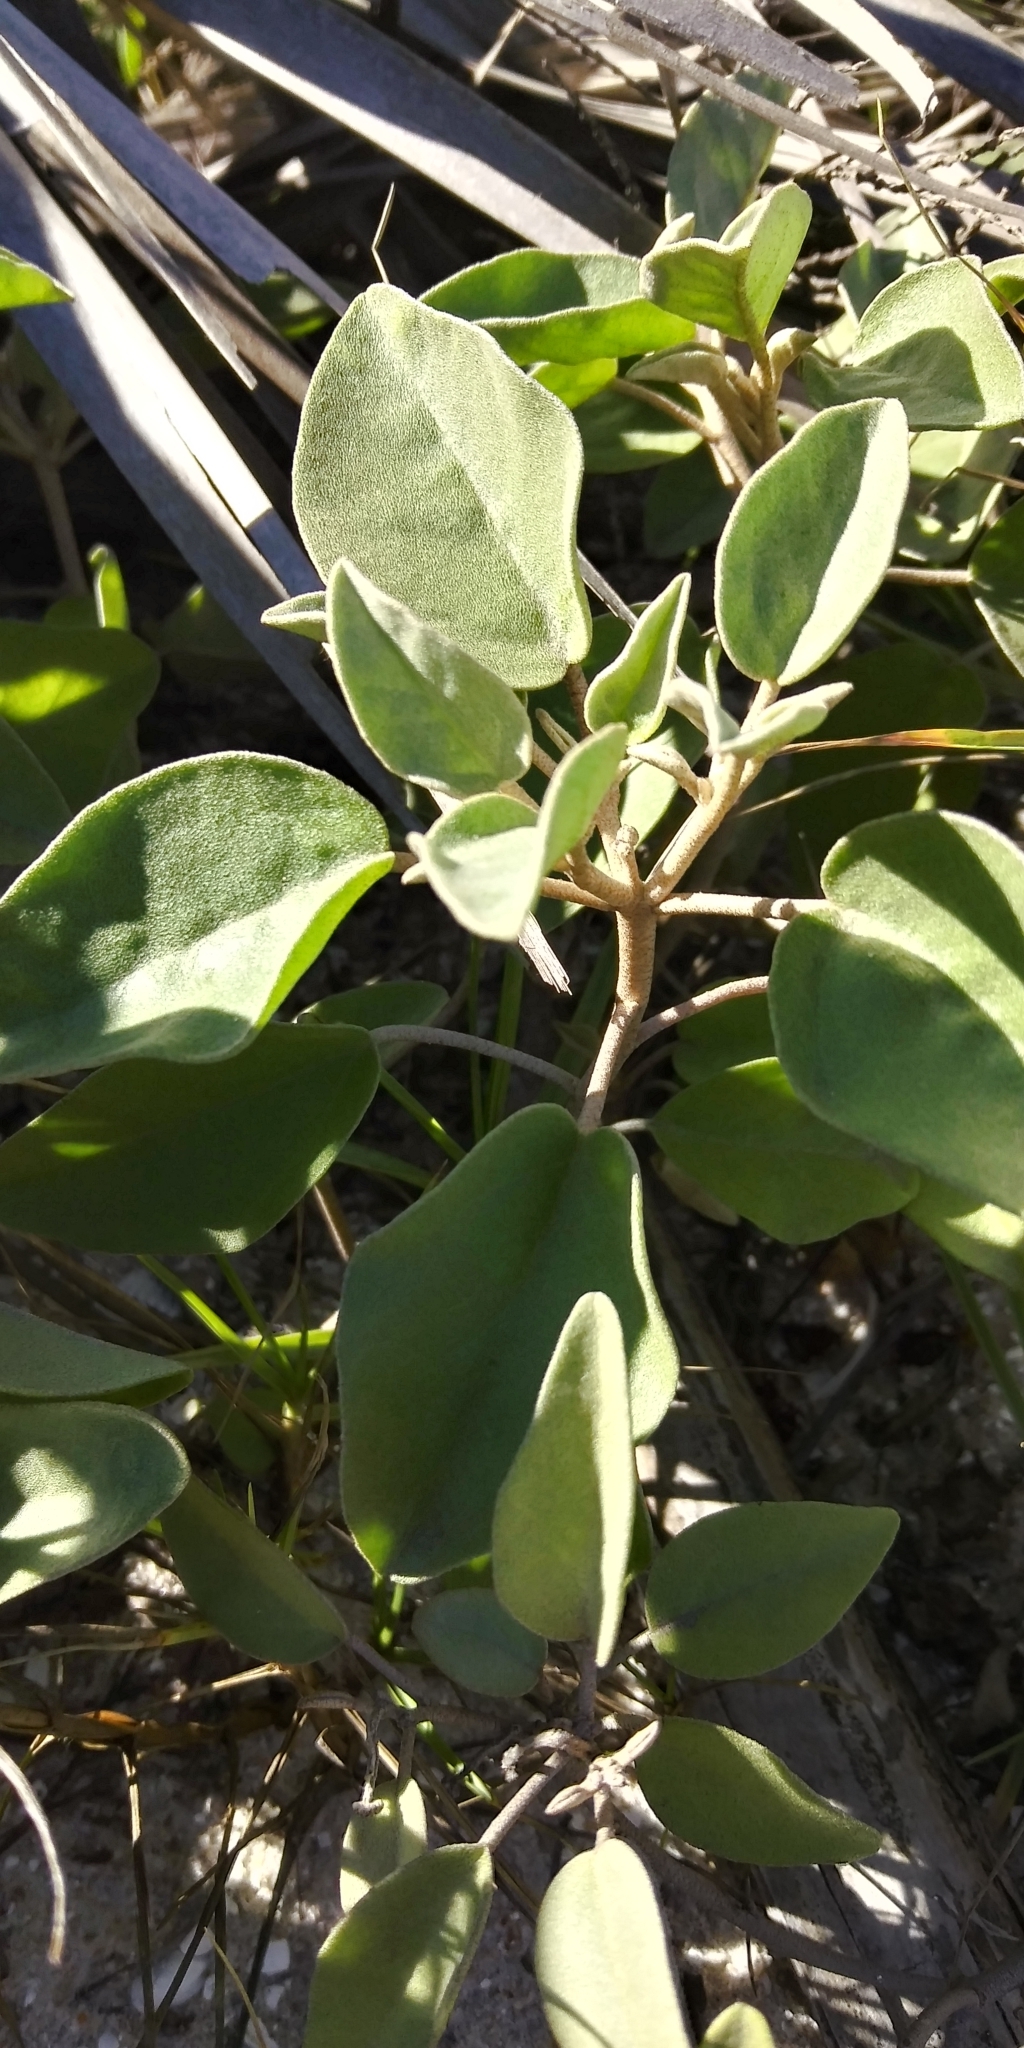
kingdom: Plantae
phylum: Tracheophyta
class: Magnoliopsida
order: Malpighiales
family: Euphorbiaceae
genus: Croton
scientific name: Croton punctatus
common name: Beach-tea
